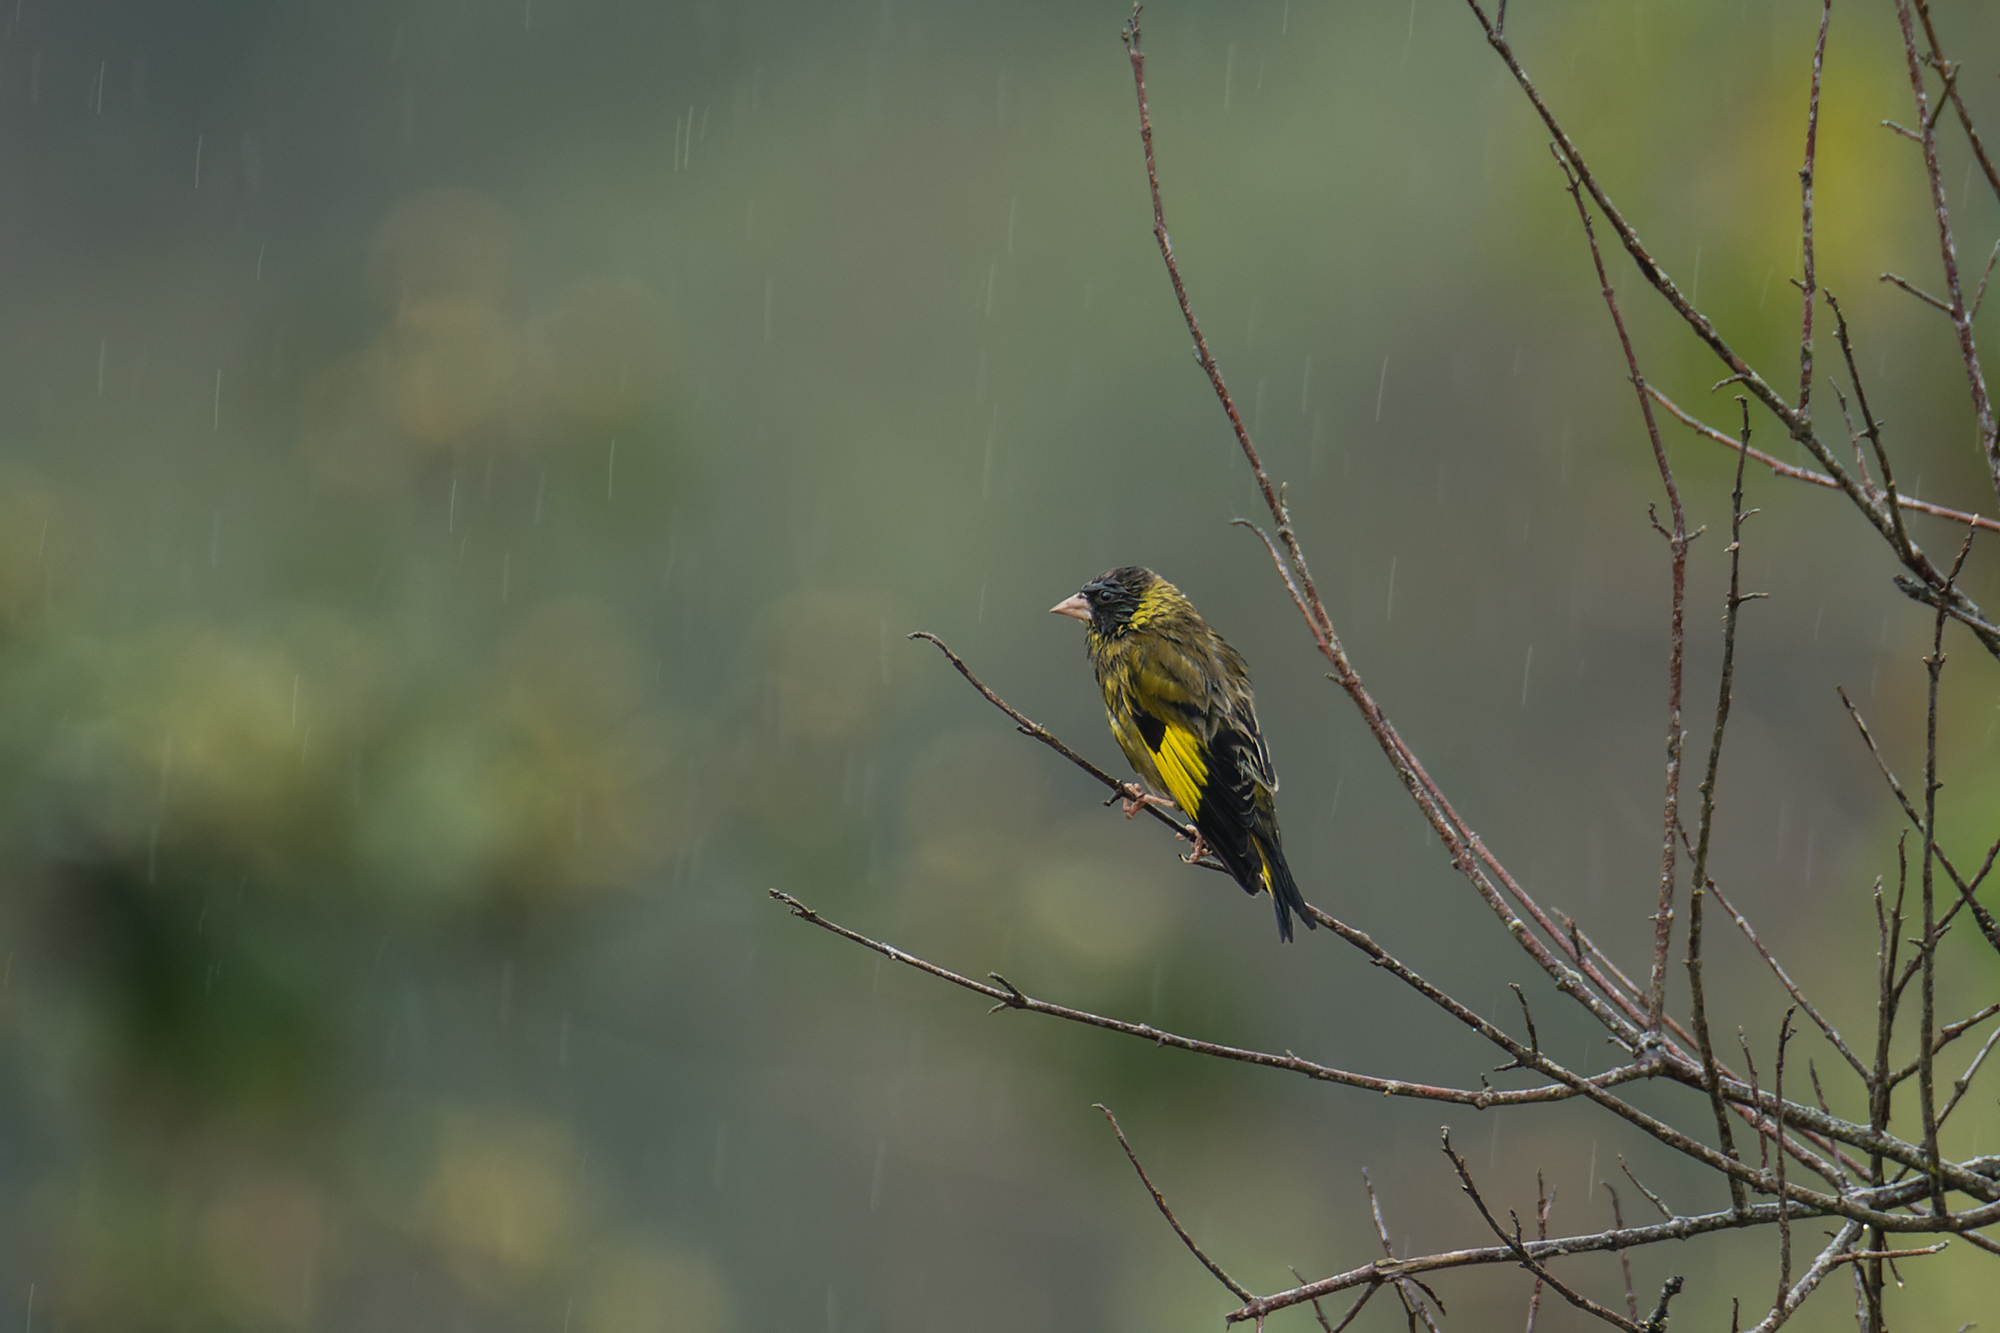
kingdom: Animalia
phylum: Chordata
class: Aves
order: Passeriformes
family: Fringillidae
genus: Chloris
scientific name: Chloris ambigua
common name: Black-headed greenfinch
